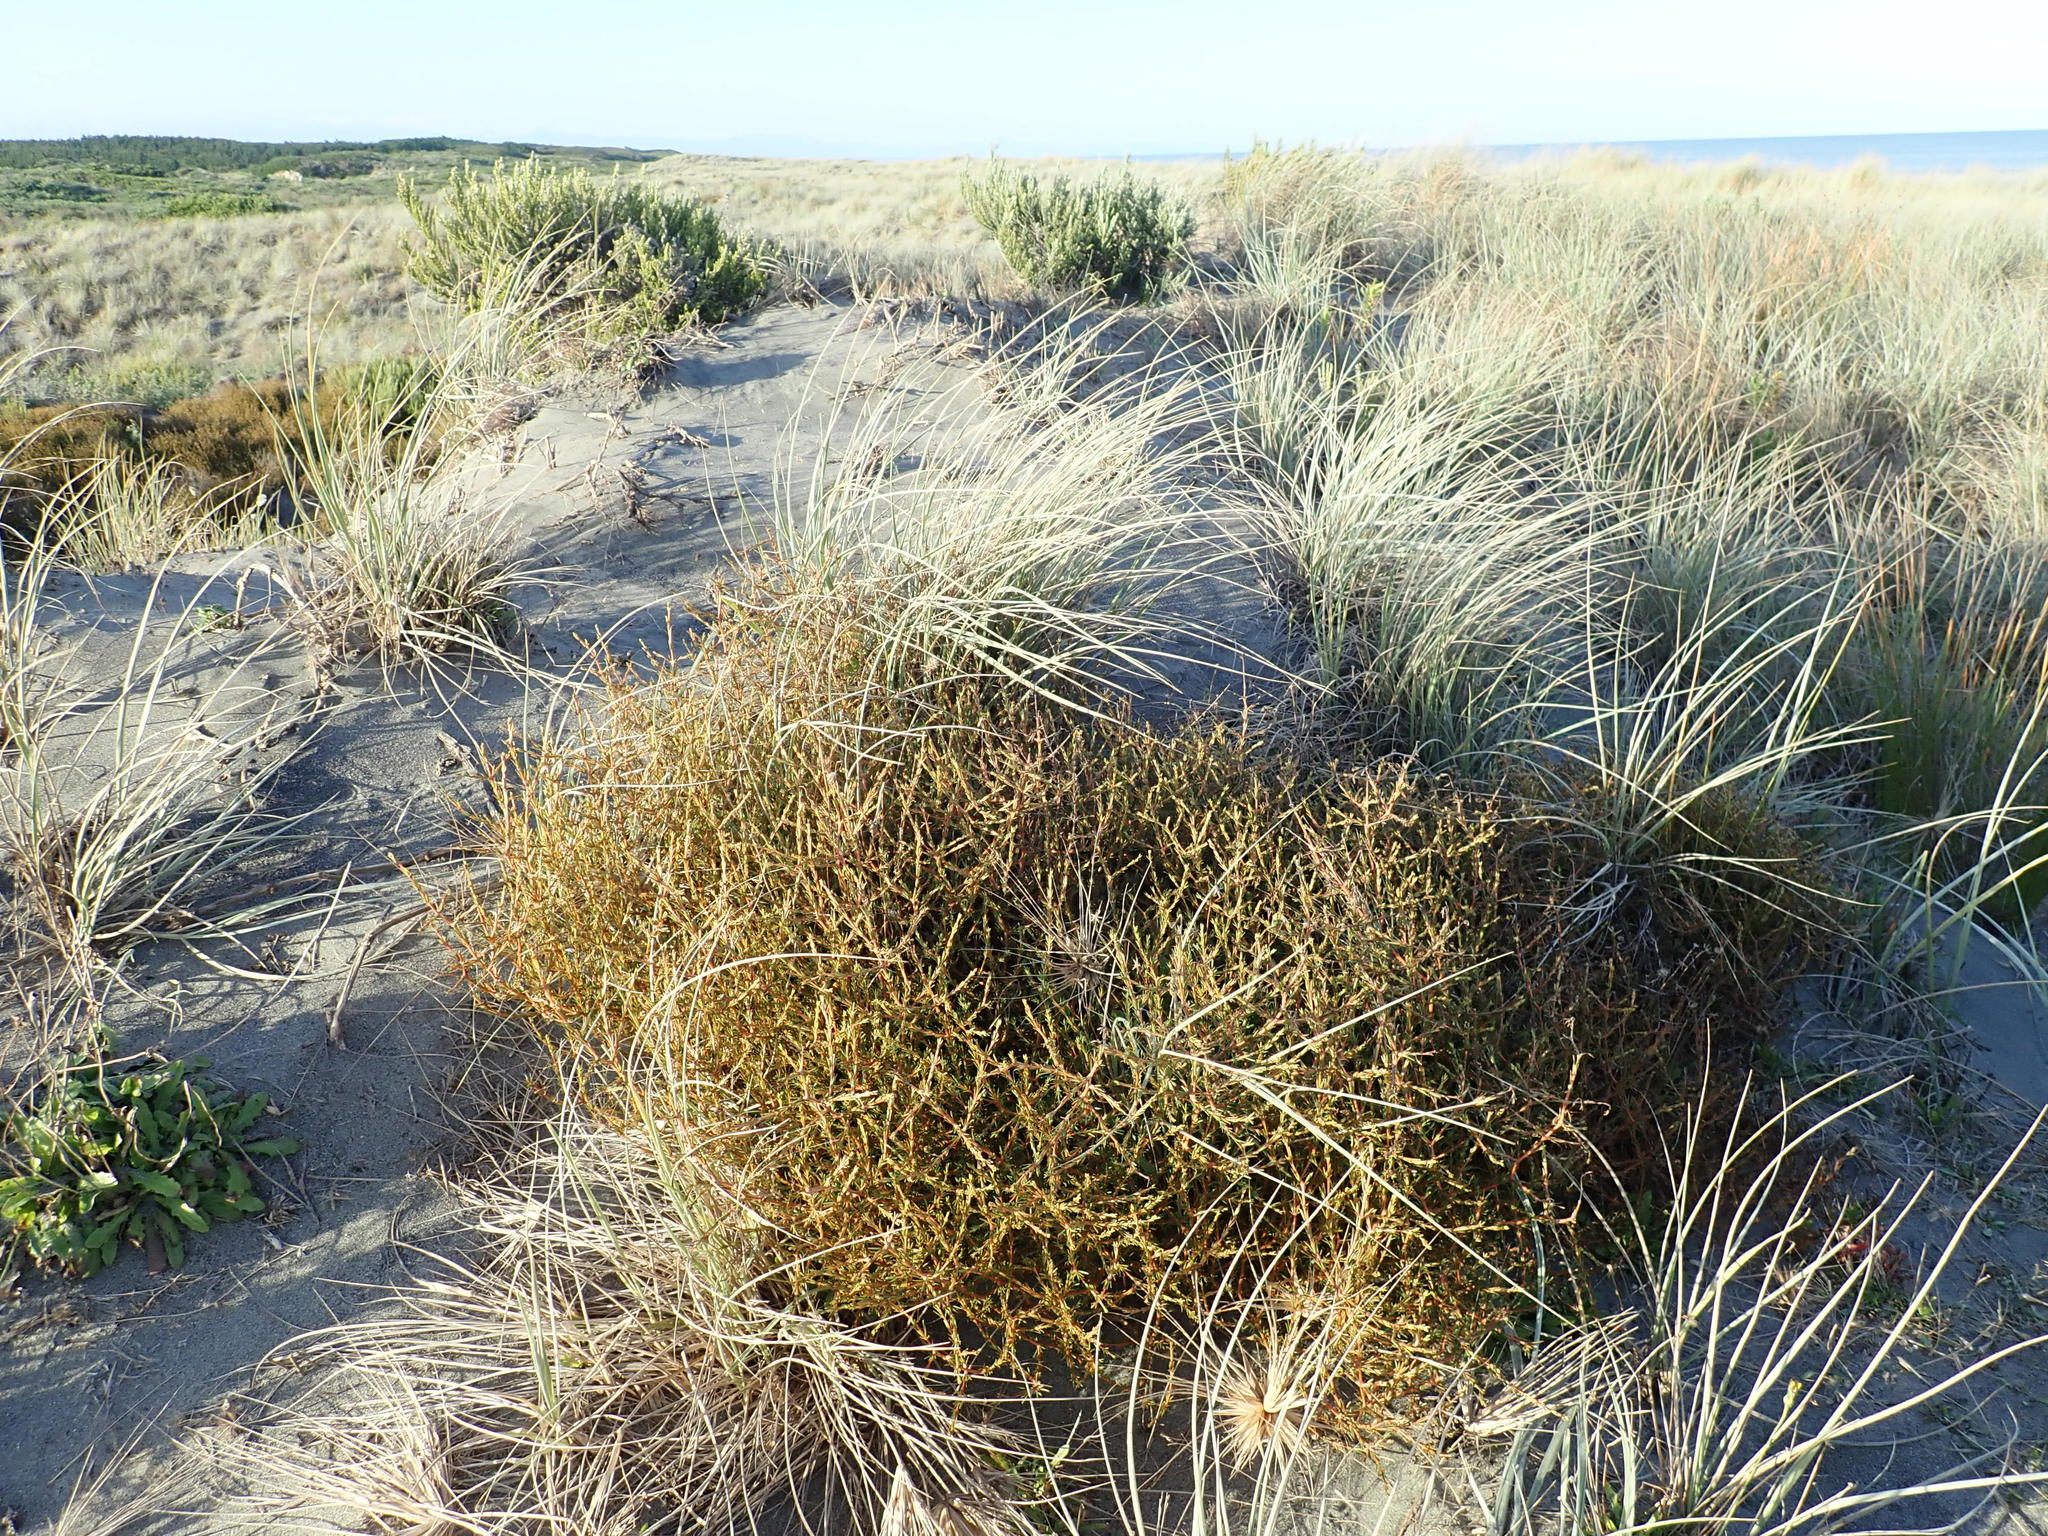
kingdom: Plantae
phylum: Tracheophyta
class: Magnoliopsida
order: Gentianales
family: Rubiaceae
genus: Coprosma
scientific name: Coprosma acerosa
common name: Sand coprosma
